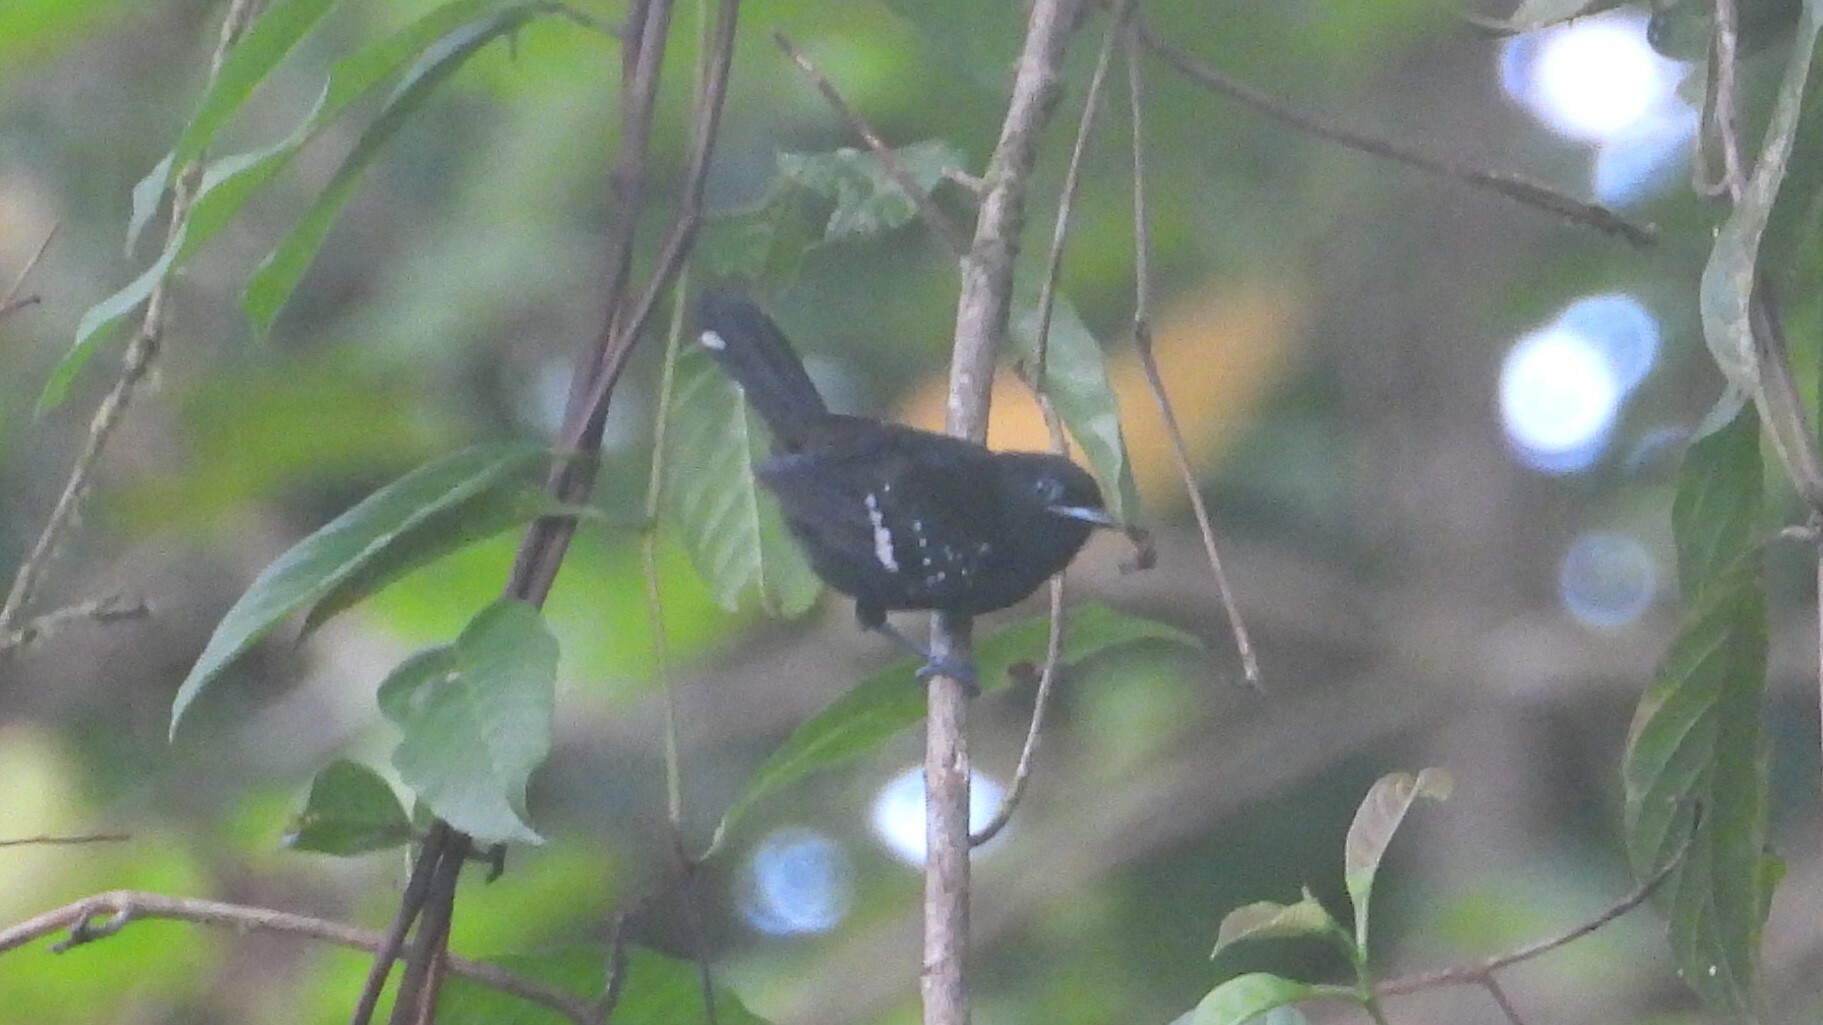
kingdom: Animalia
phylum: Chordata
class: Aves
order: Passeriformes
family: Thamnophilidae
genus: Microrhopias
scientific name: Microrhopias quixensis
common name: Dot-winged antwren
